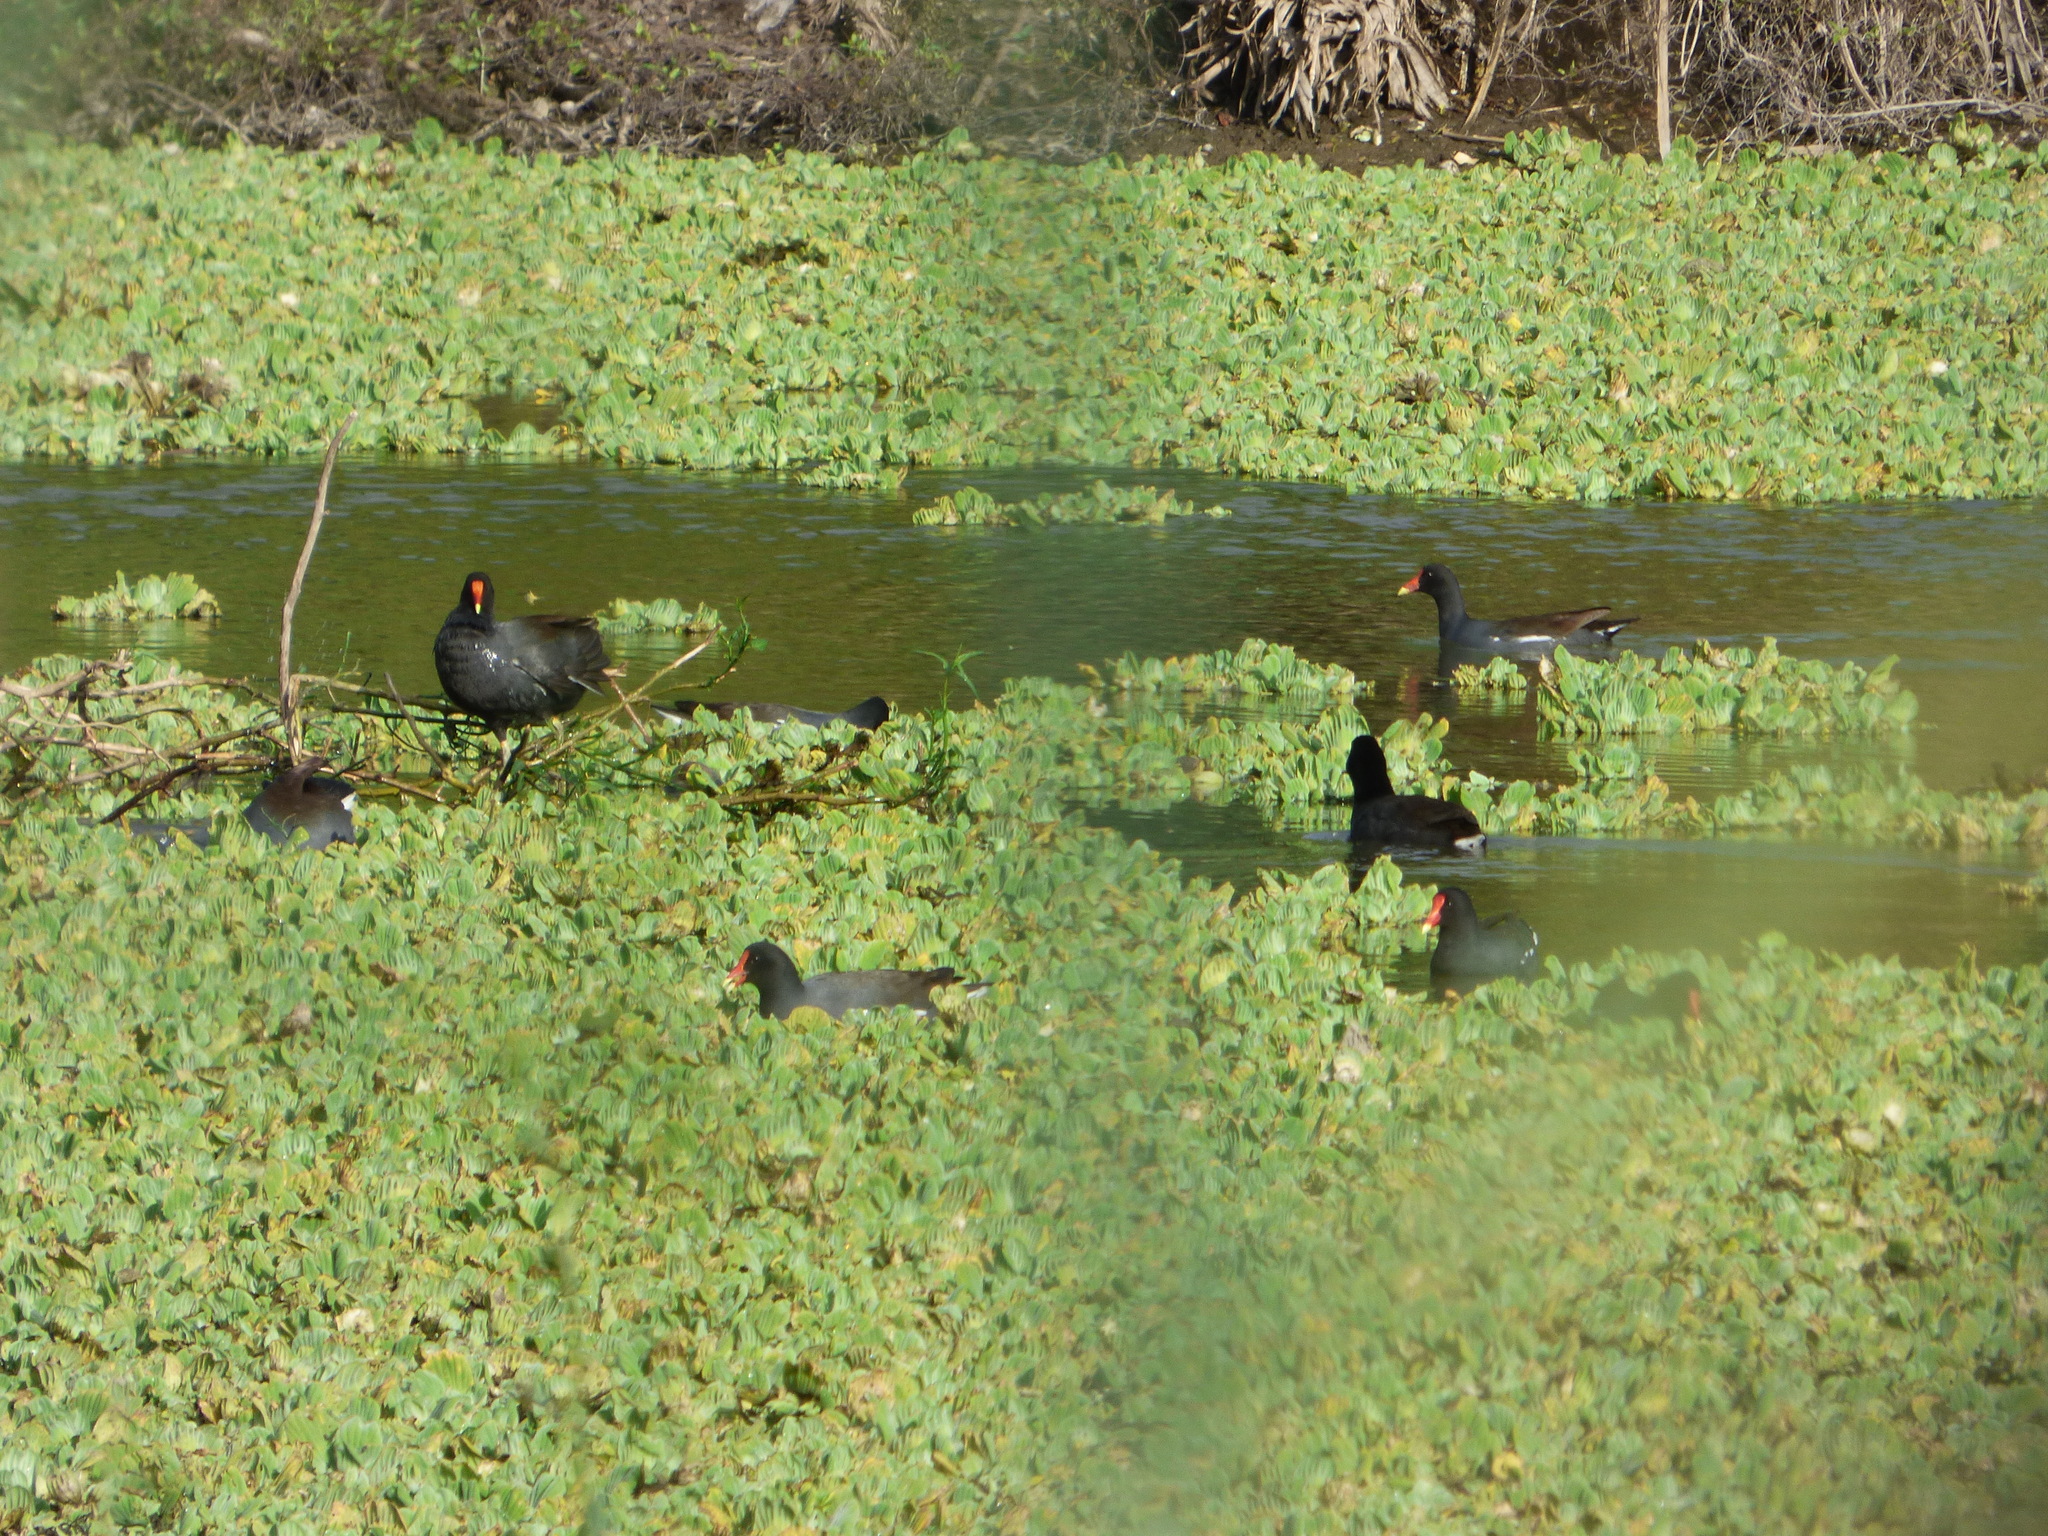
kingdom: Animalia
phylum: Chordata
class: Aves
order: Gruiformes
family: Rallidae
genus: Gallinula
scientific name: Gallinula chloropus
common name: Common moorhen
